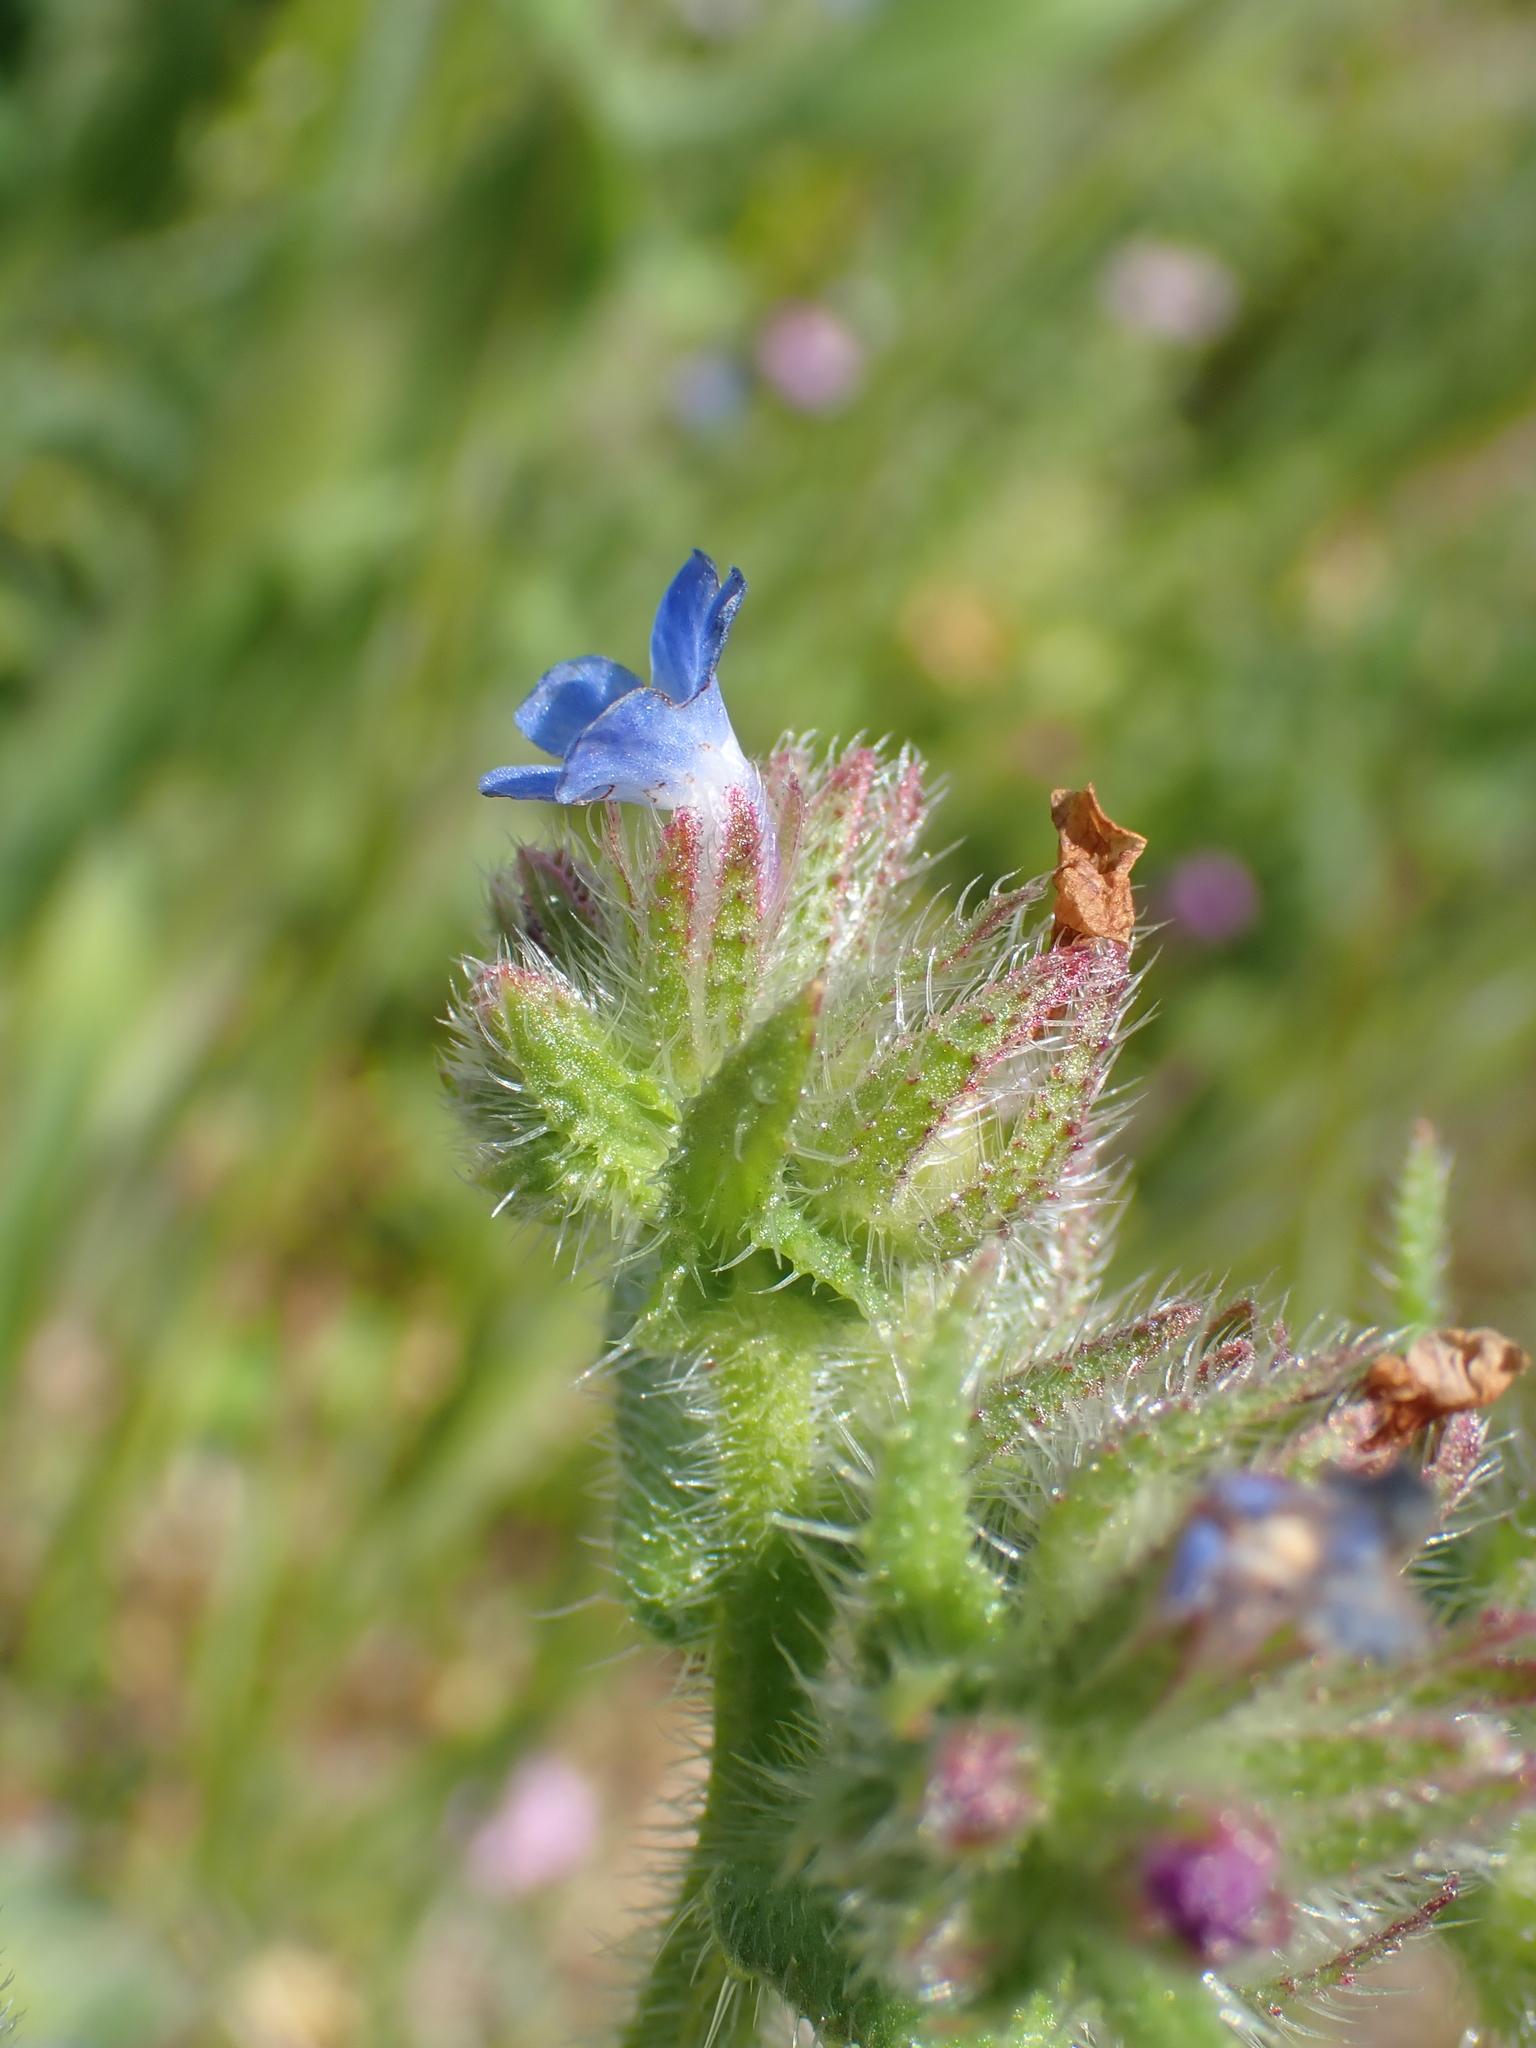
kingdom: Plantae
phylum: Tracheophyta
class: Magnoliopsida
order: Boraginales
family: Boraginaceae
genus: Lycopsis
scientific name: Lycopsis arvensis
